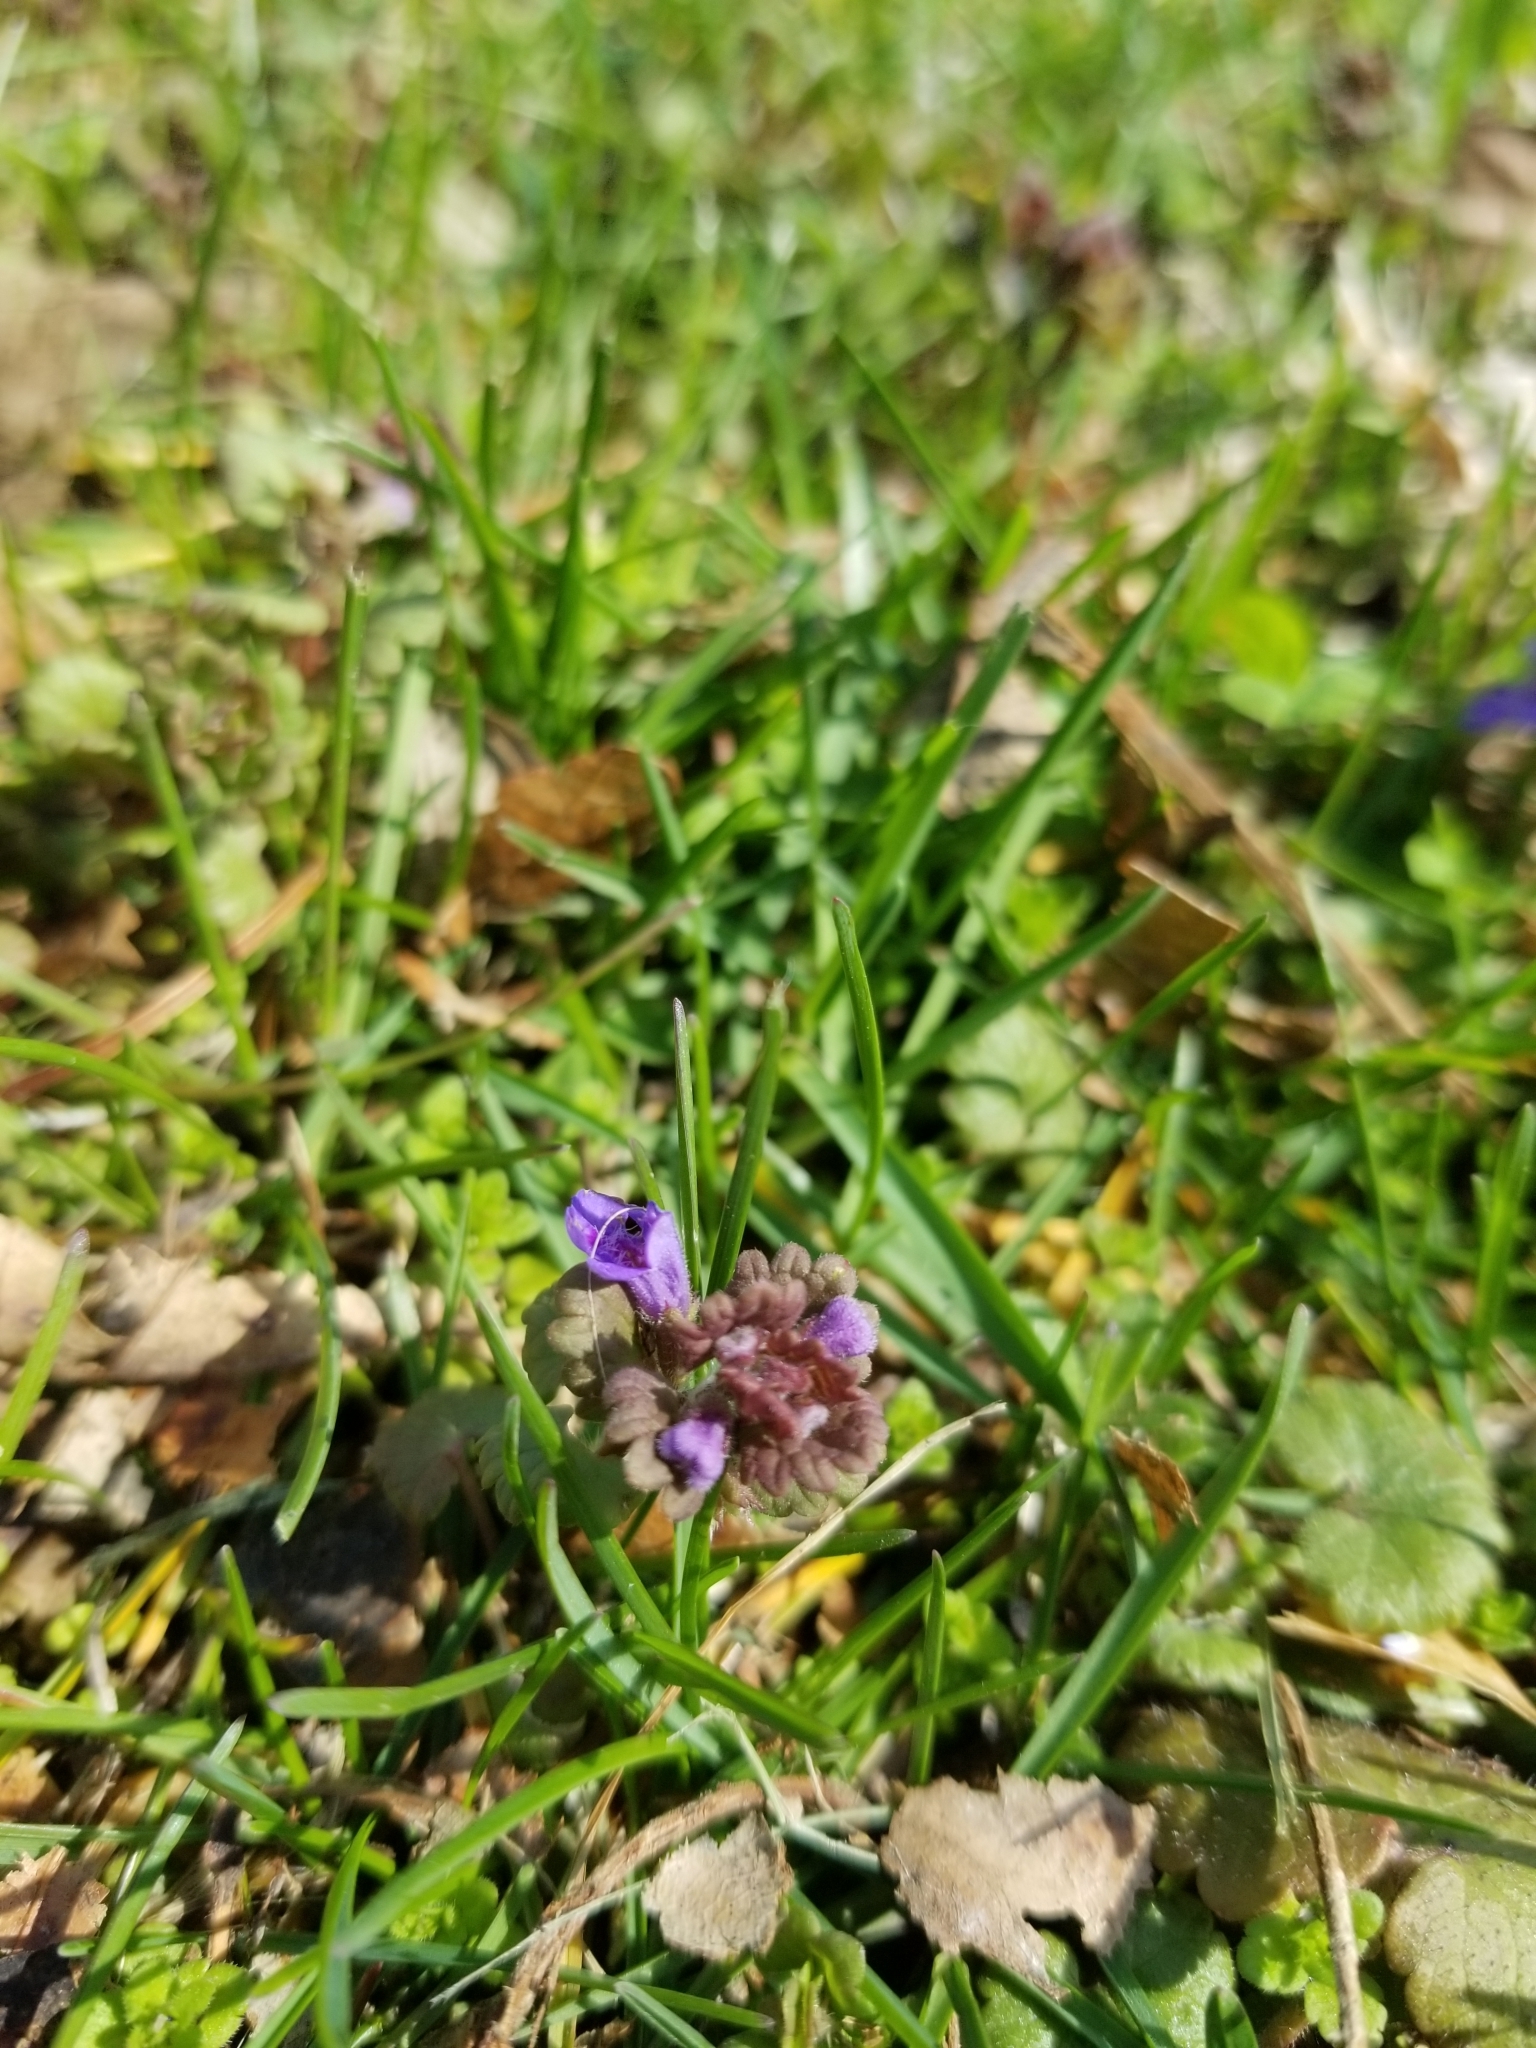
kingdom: Plantae
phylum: Tracheophyta
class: Magnoliopsida
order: Lamiales
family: Lamiaceae
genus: Glechoma
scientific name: Glechoma hederacea
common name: Ground ivy
